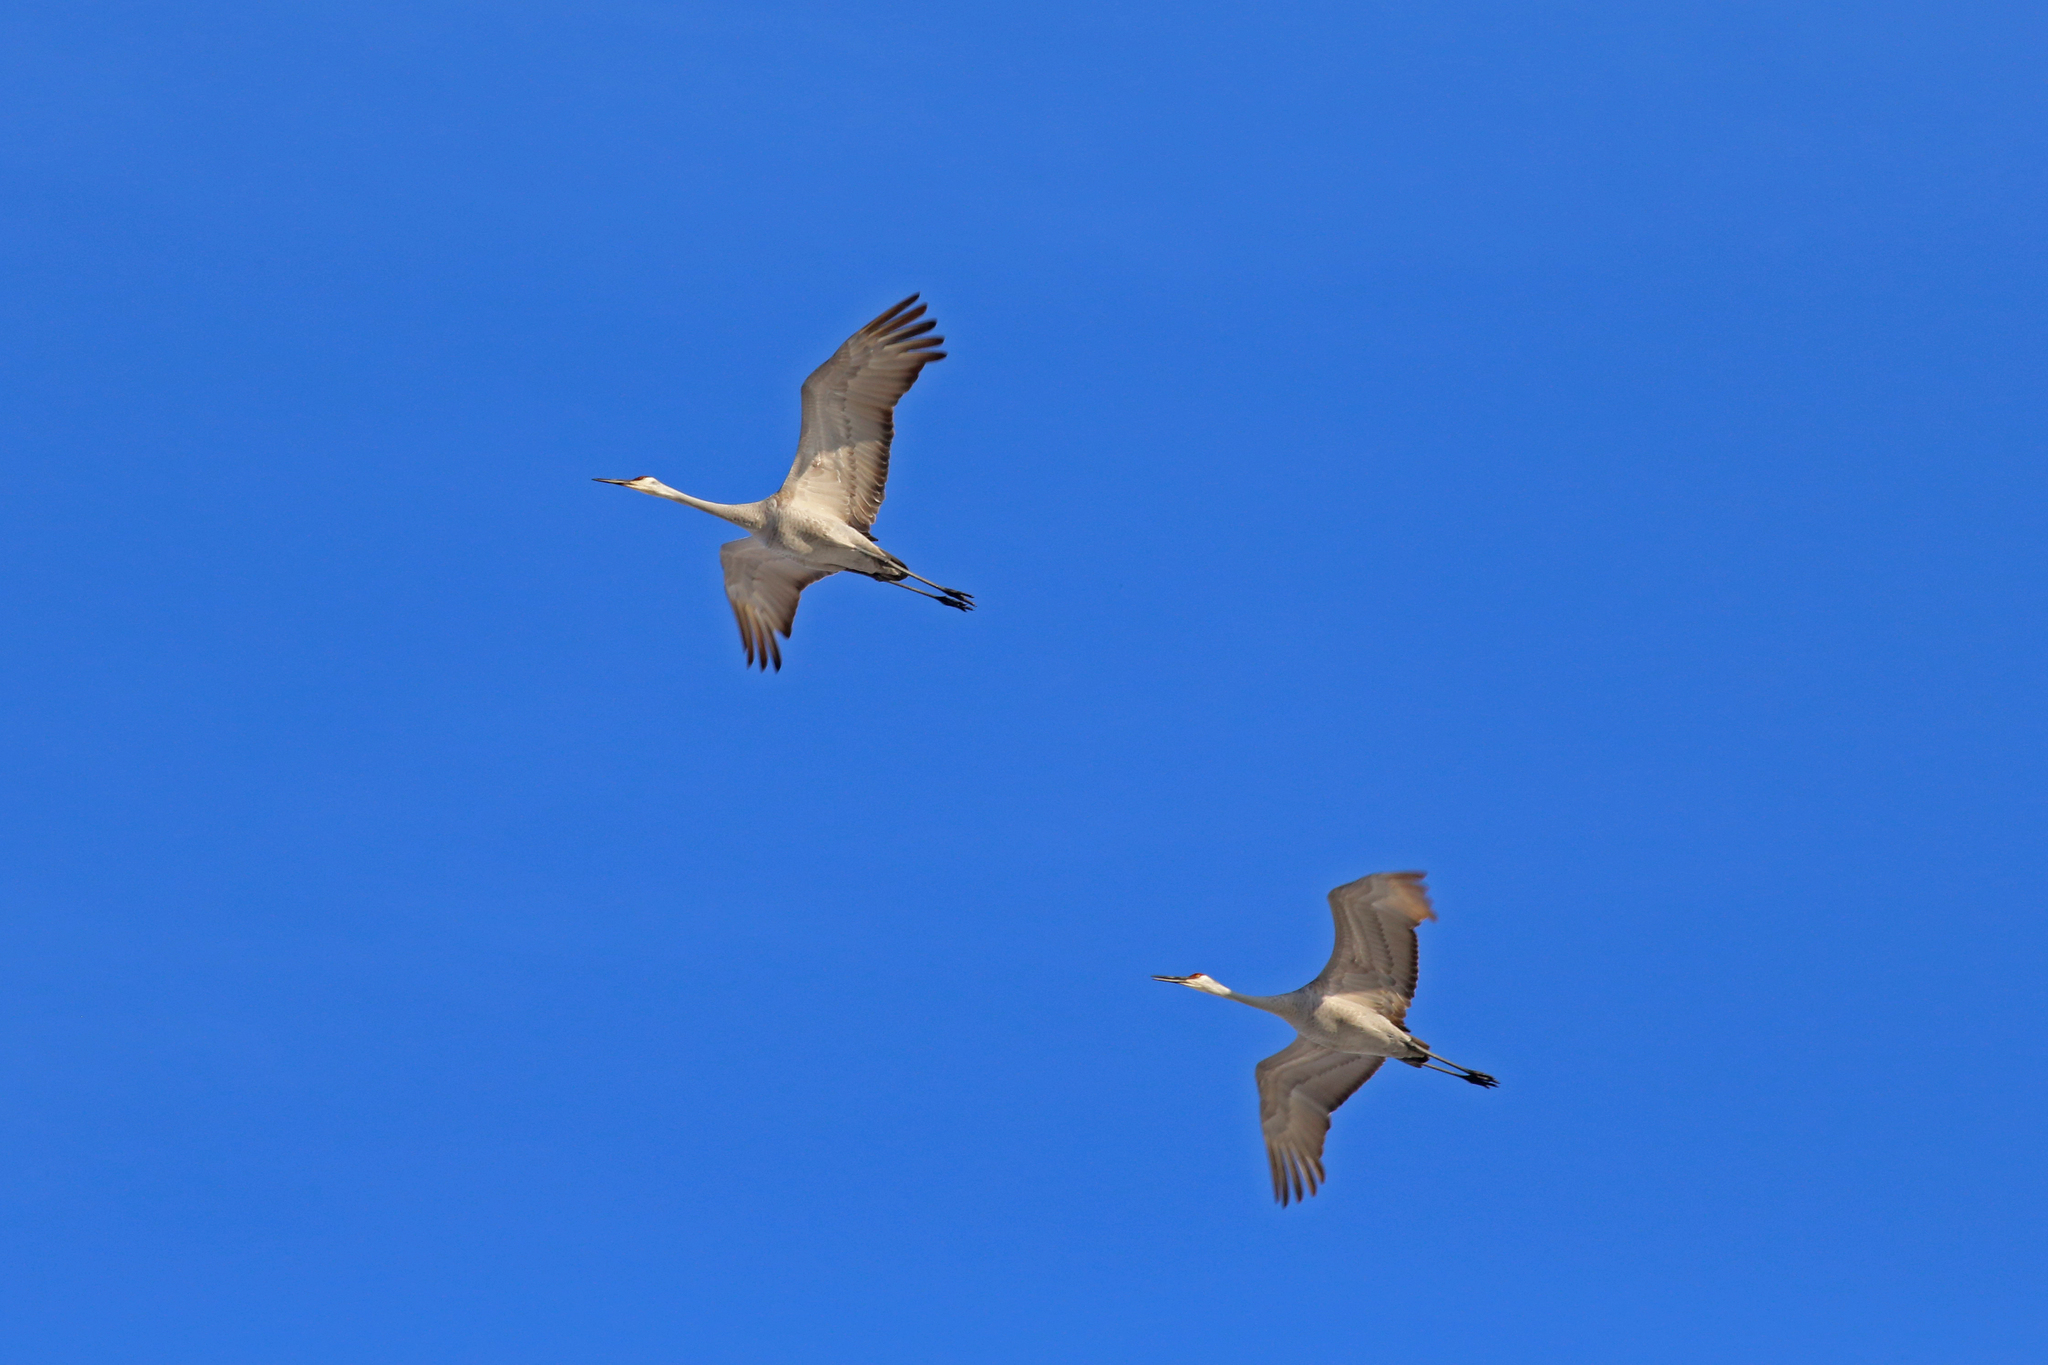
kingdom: Animalia
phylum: Chordata
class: Aves
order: Gruiformes
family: Gruidae
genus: Grus
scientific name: Grus canadensis
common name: Sandhill crane
